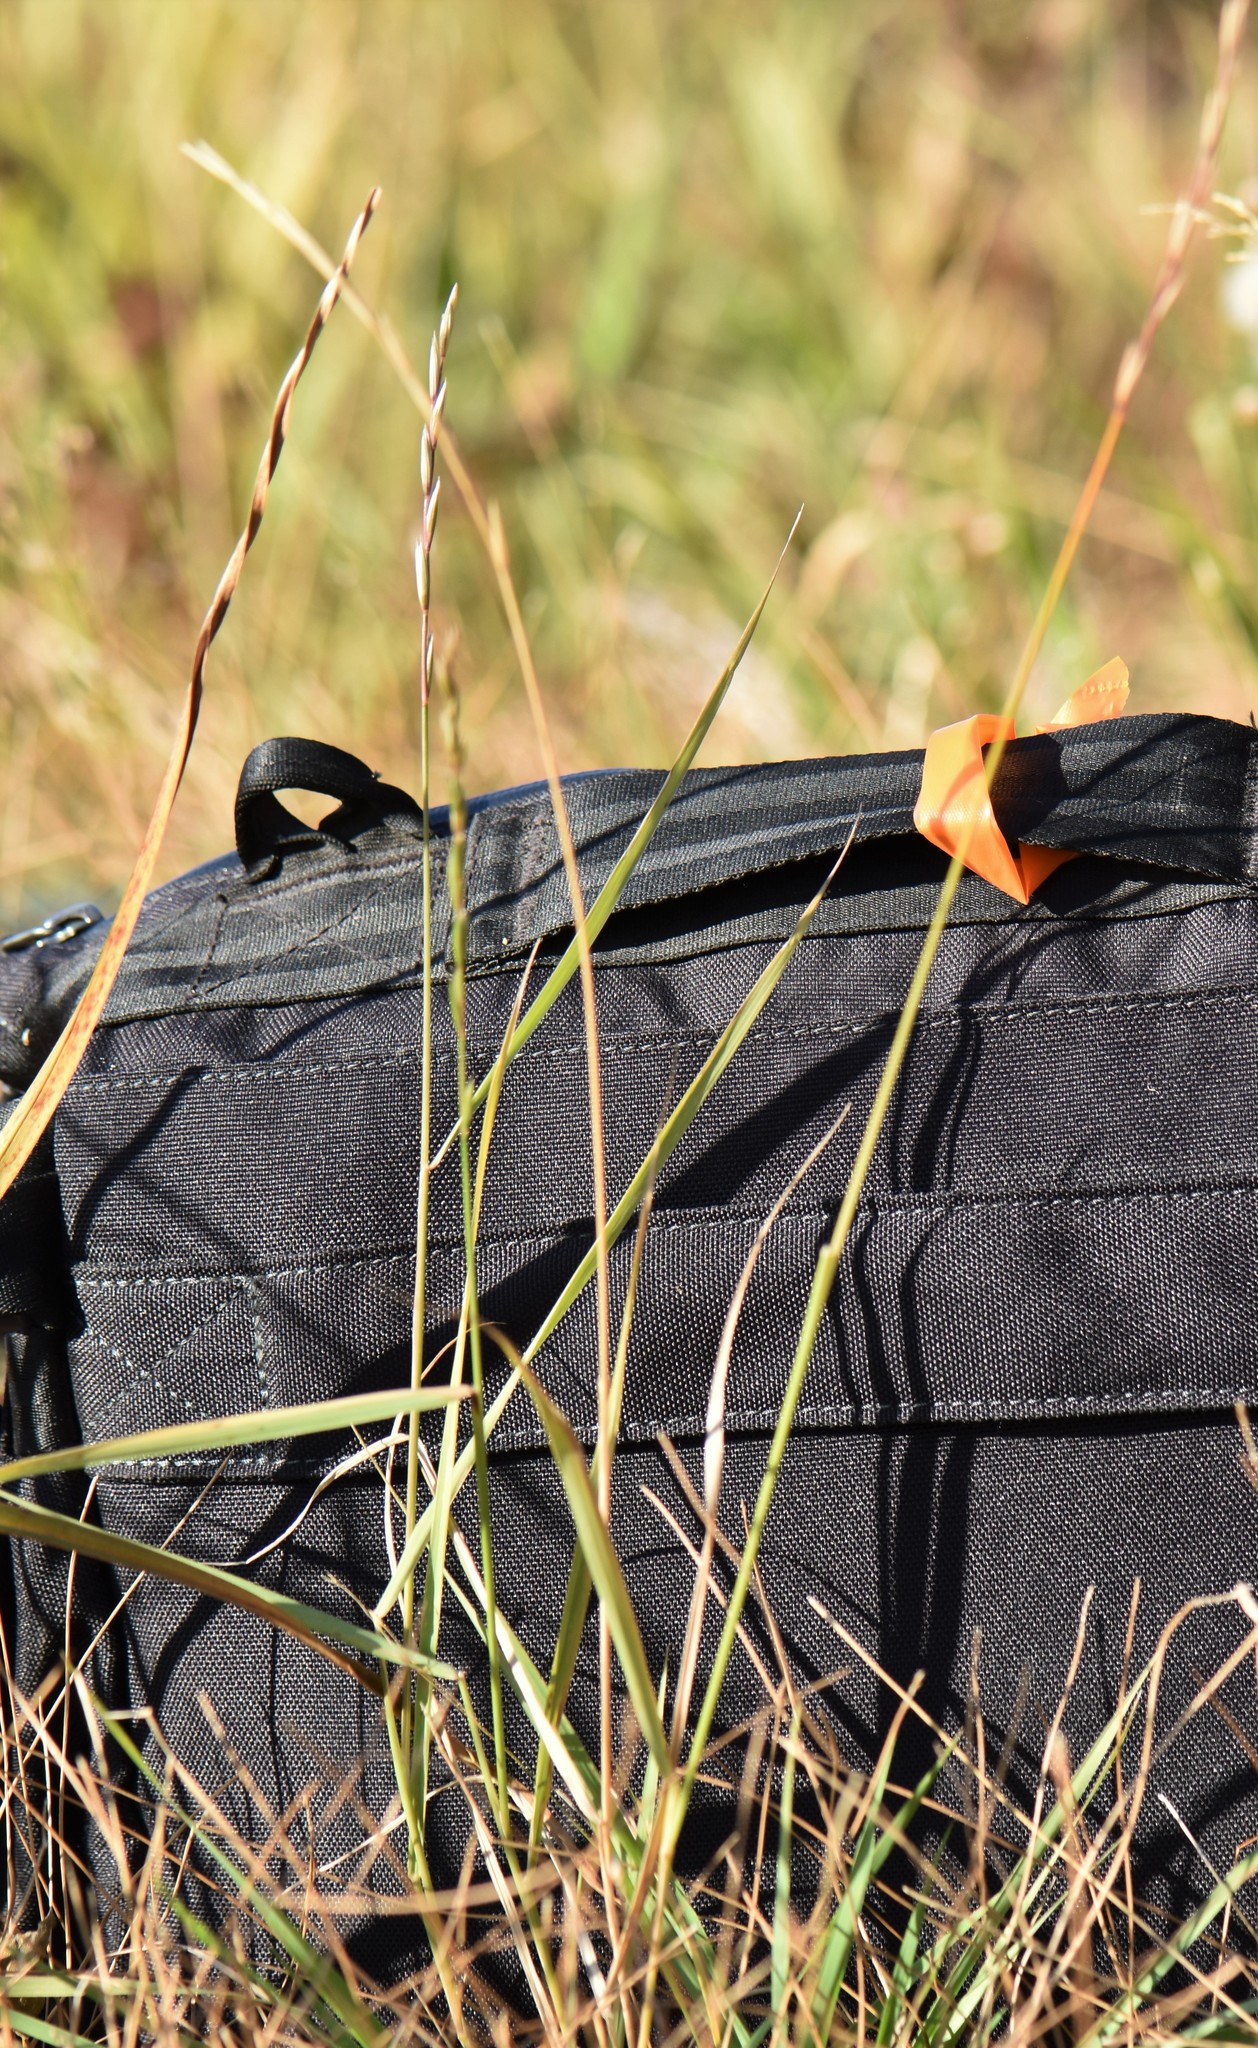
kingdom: Plantae
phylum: Tracheophyta
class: Liliopsida
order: Poales
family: Poaceae
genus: Elymus
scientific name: Elymus violaceus
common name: Arctic wheatgrass
